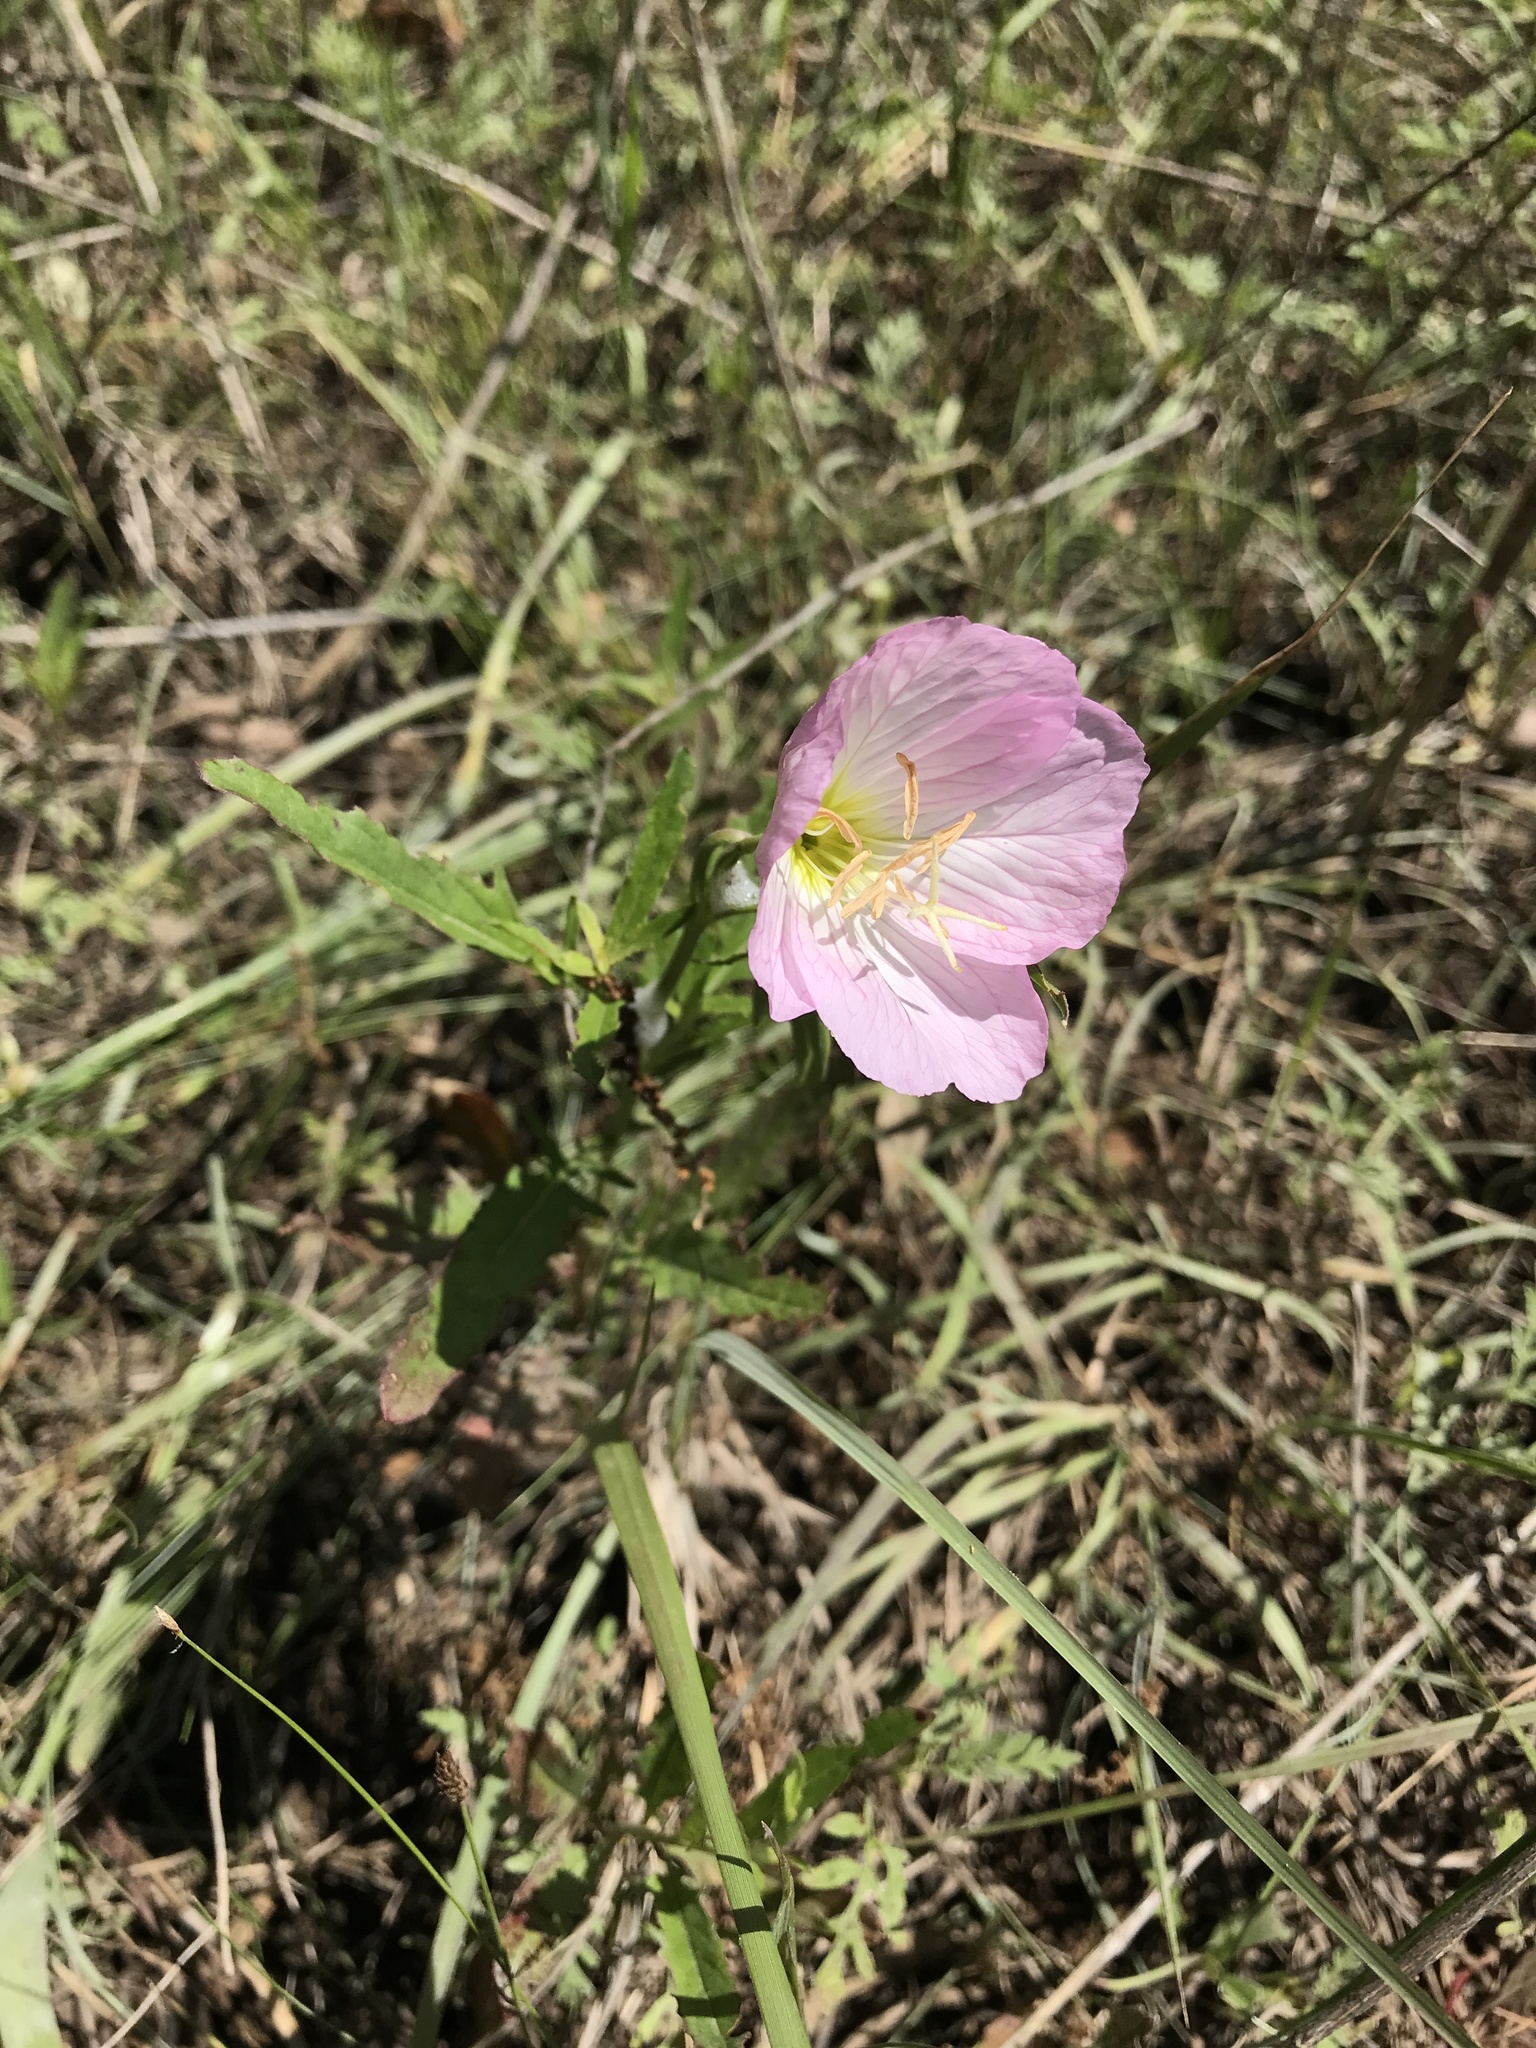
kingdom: Plantae
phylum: Tracheophyta
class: Magnoliopsida
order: Myrtales
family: Onagraceae
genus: Oenothera
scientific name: Oenothera speciosa
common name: White evening-primrose
